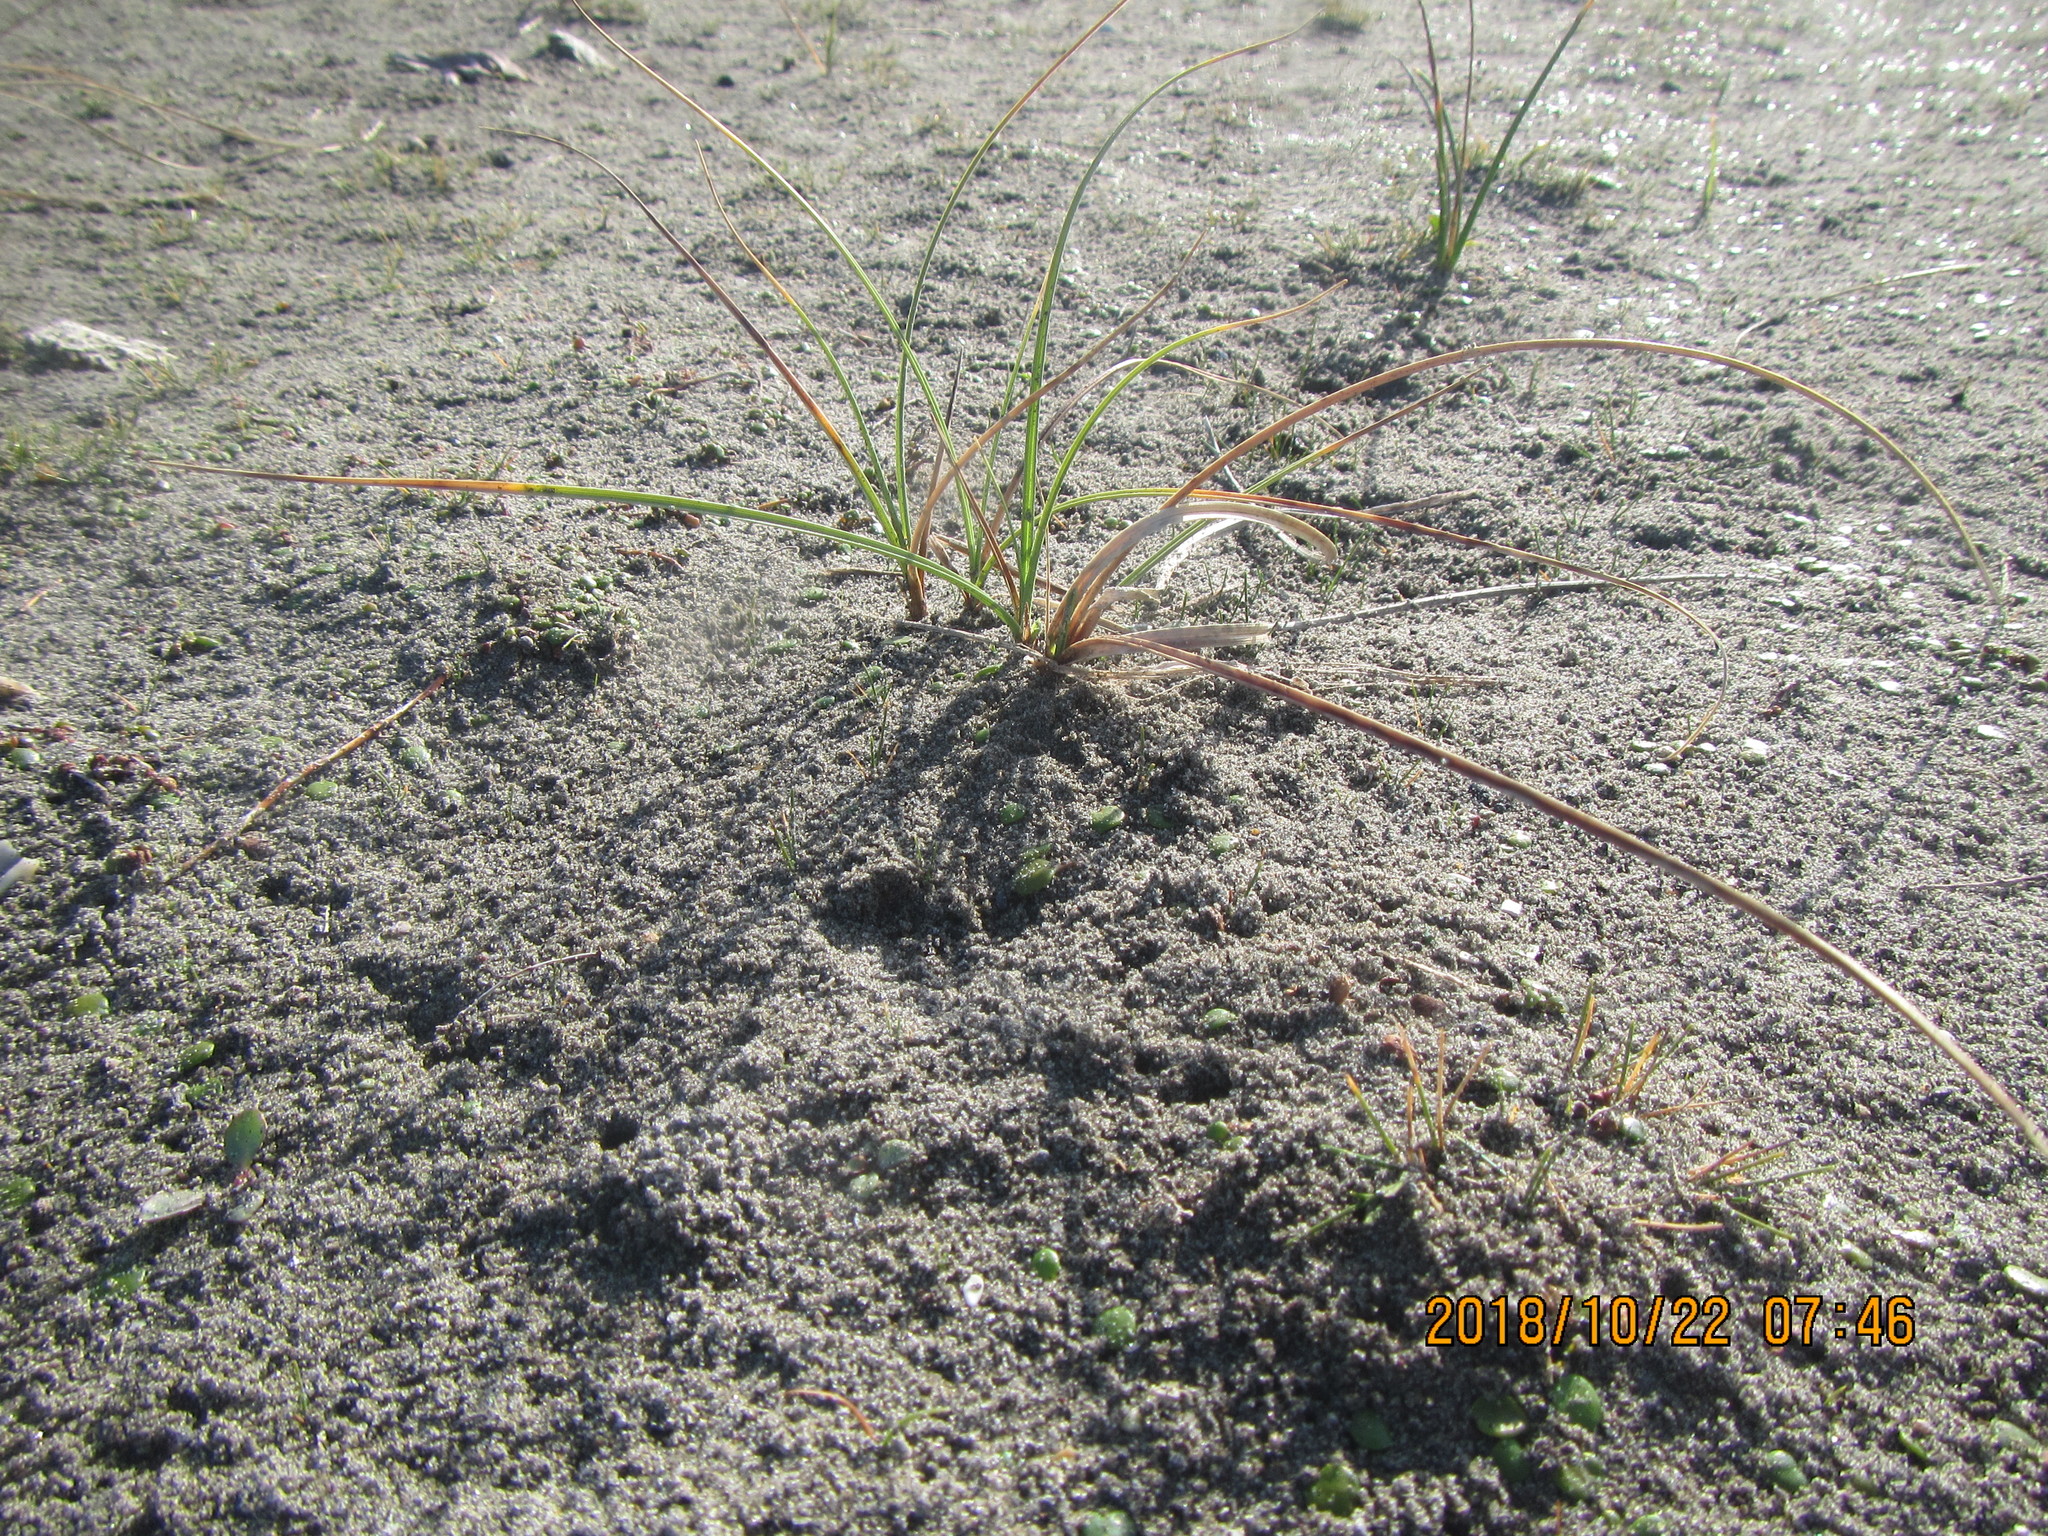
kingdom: Plantae
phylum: Tracheophyta
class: Liliopsida
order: Poales
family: Cyperaceae
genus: Carex
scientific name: Carex pumila
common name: Dwarf sedge
